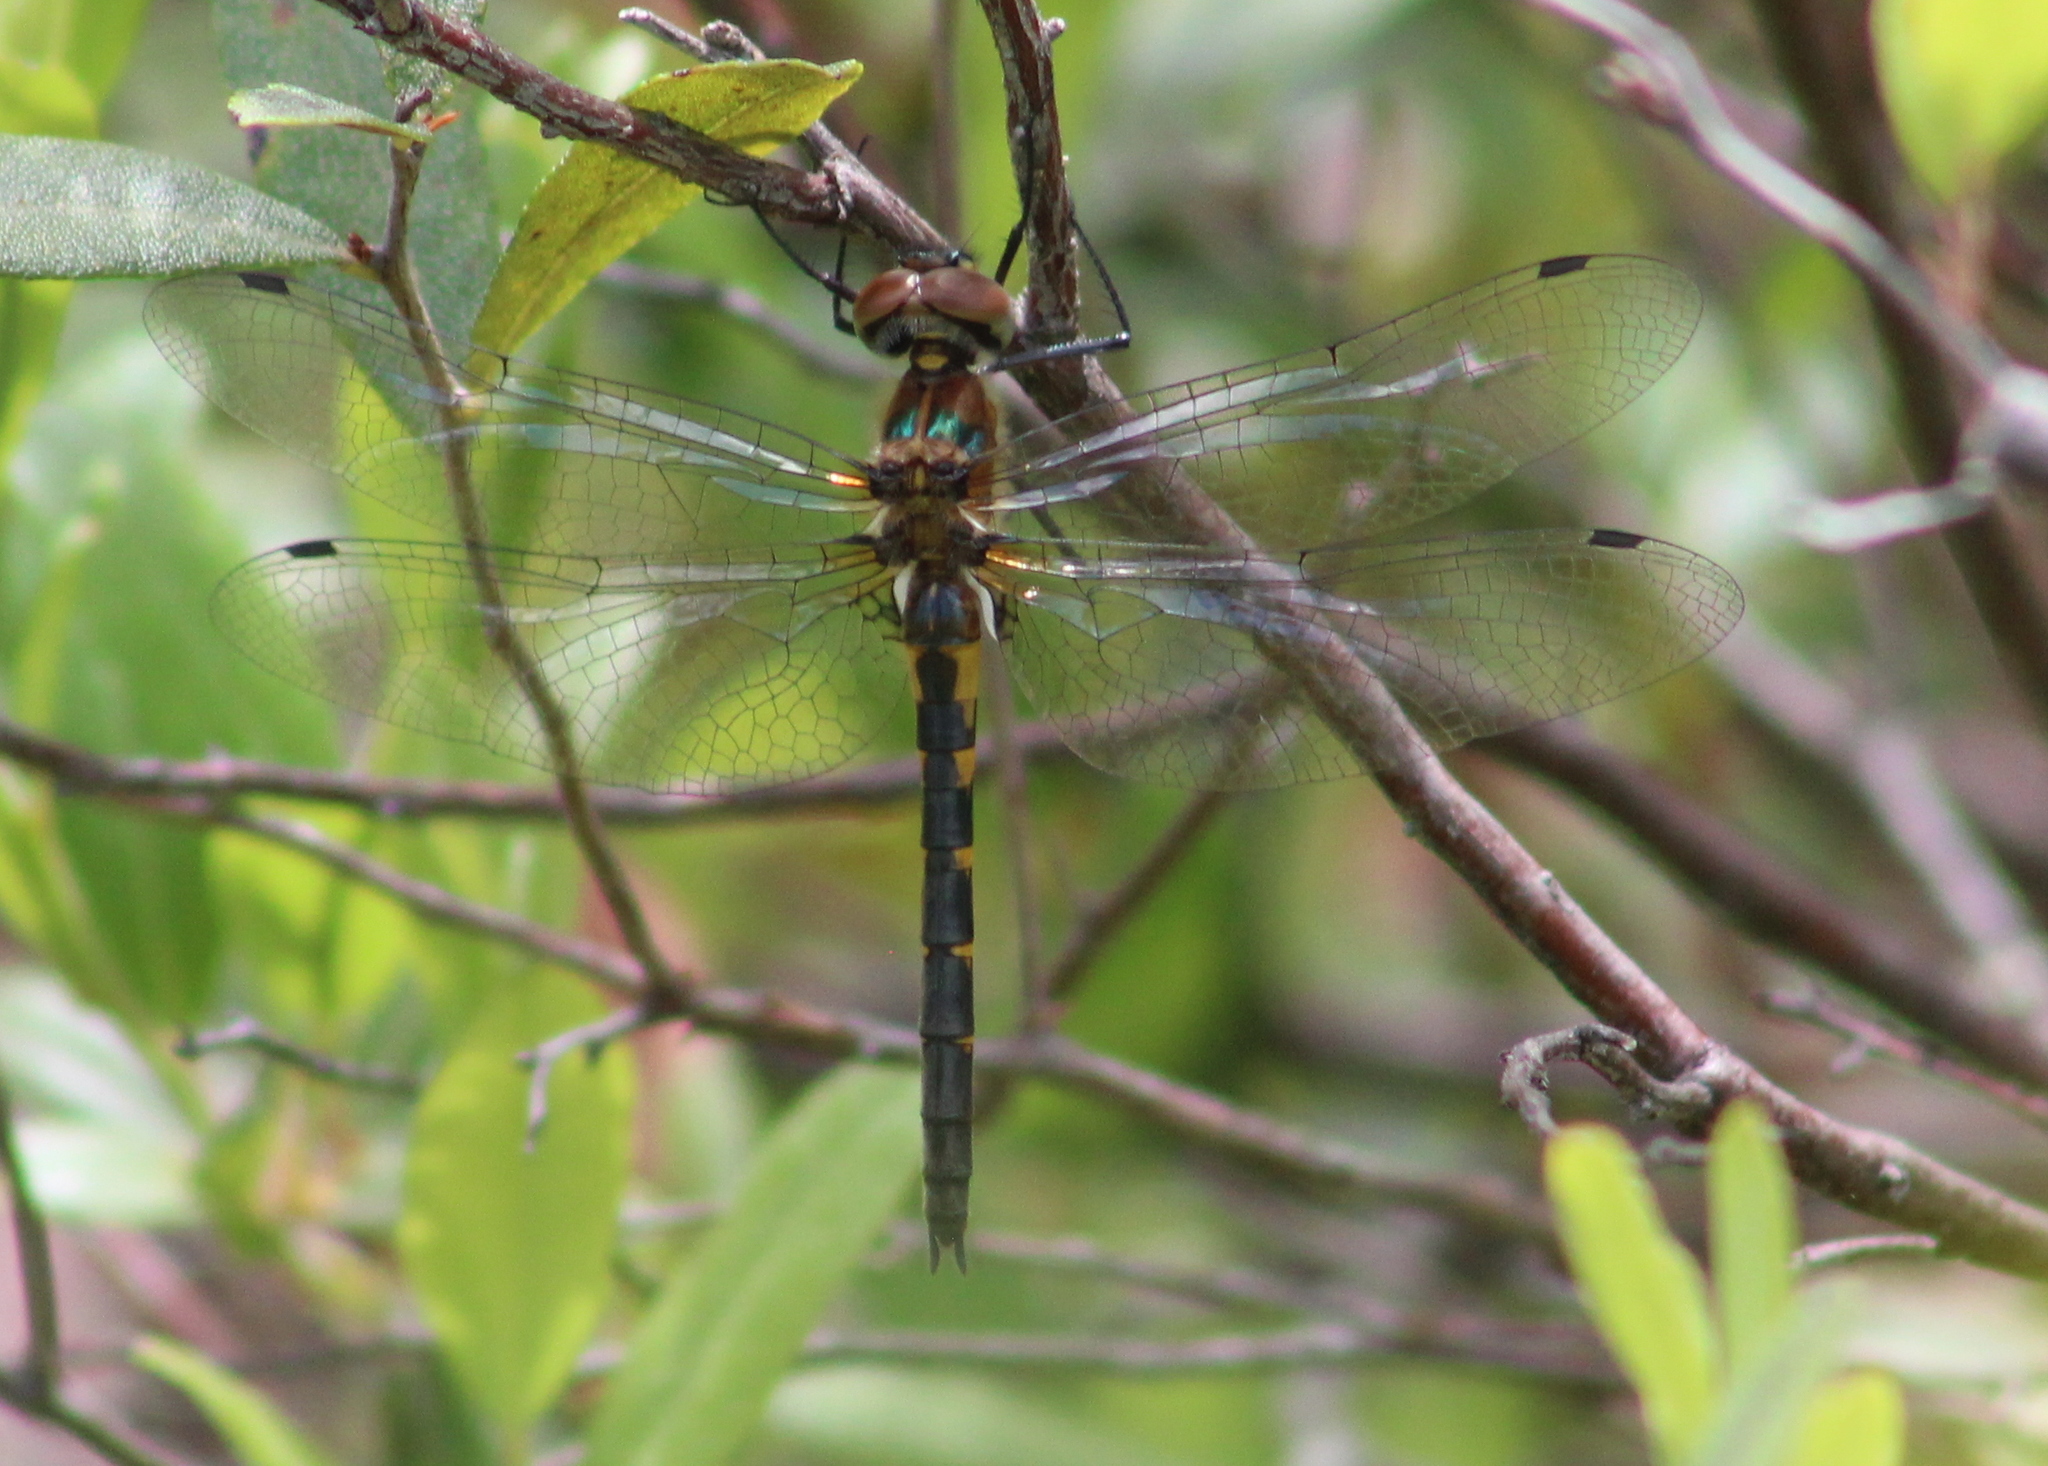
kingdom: Animalia
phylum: Arthropoda
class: Insecta
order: Odonata
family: Corduliidae
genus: Dorocordulia
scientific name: Dorocordulia lepida
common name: Petite emerald
